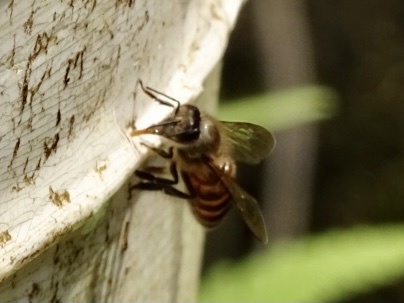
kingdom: Animalia
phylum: Arthropoda
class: Insecta
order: Hymenoptera
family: Apidae
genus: Apis
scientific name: Apis cerana
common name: Honey bee
